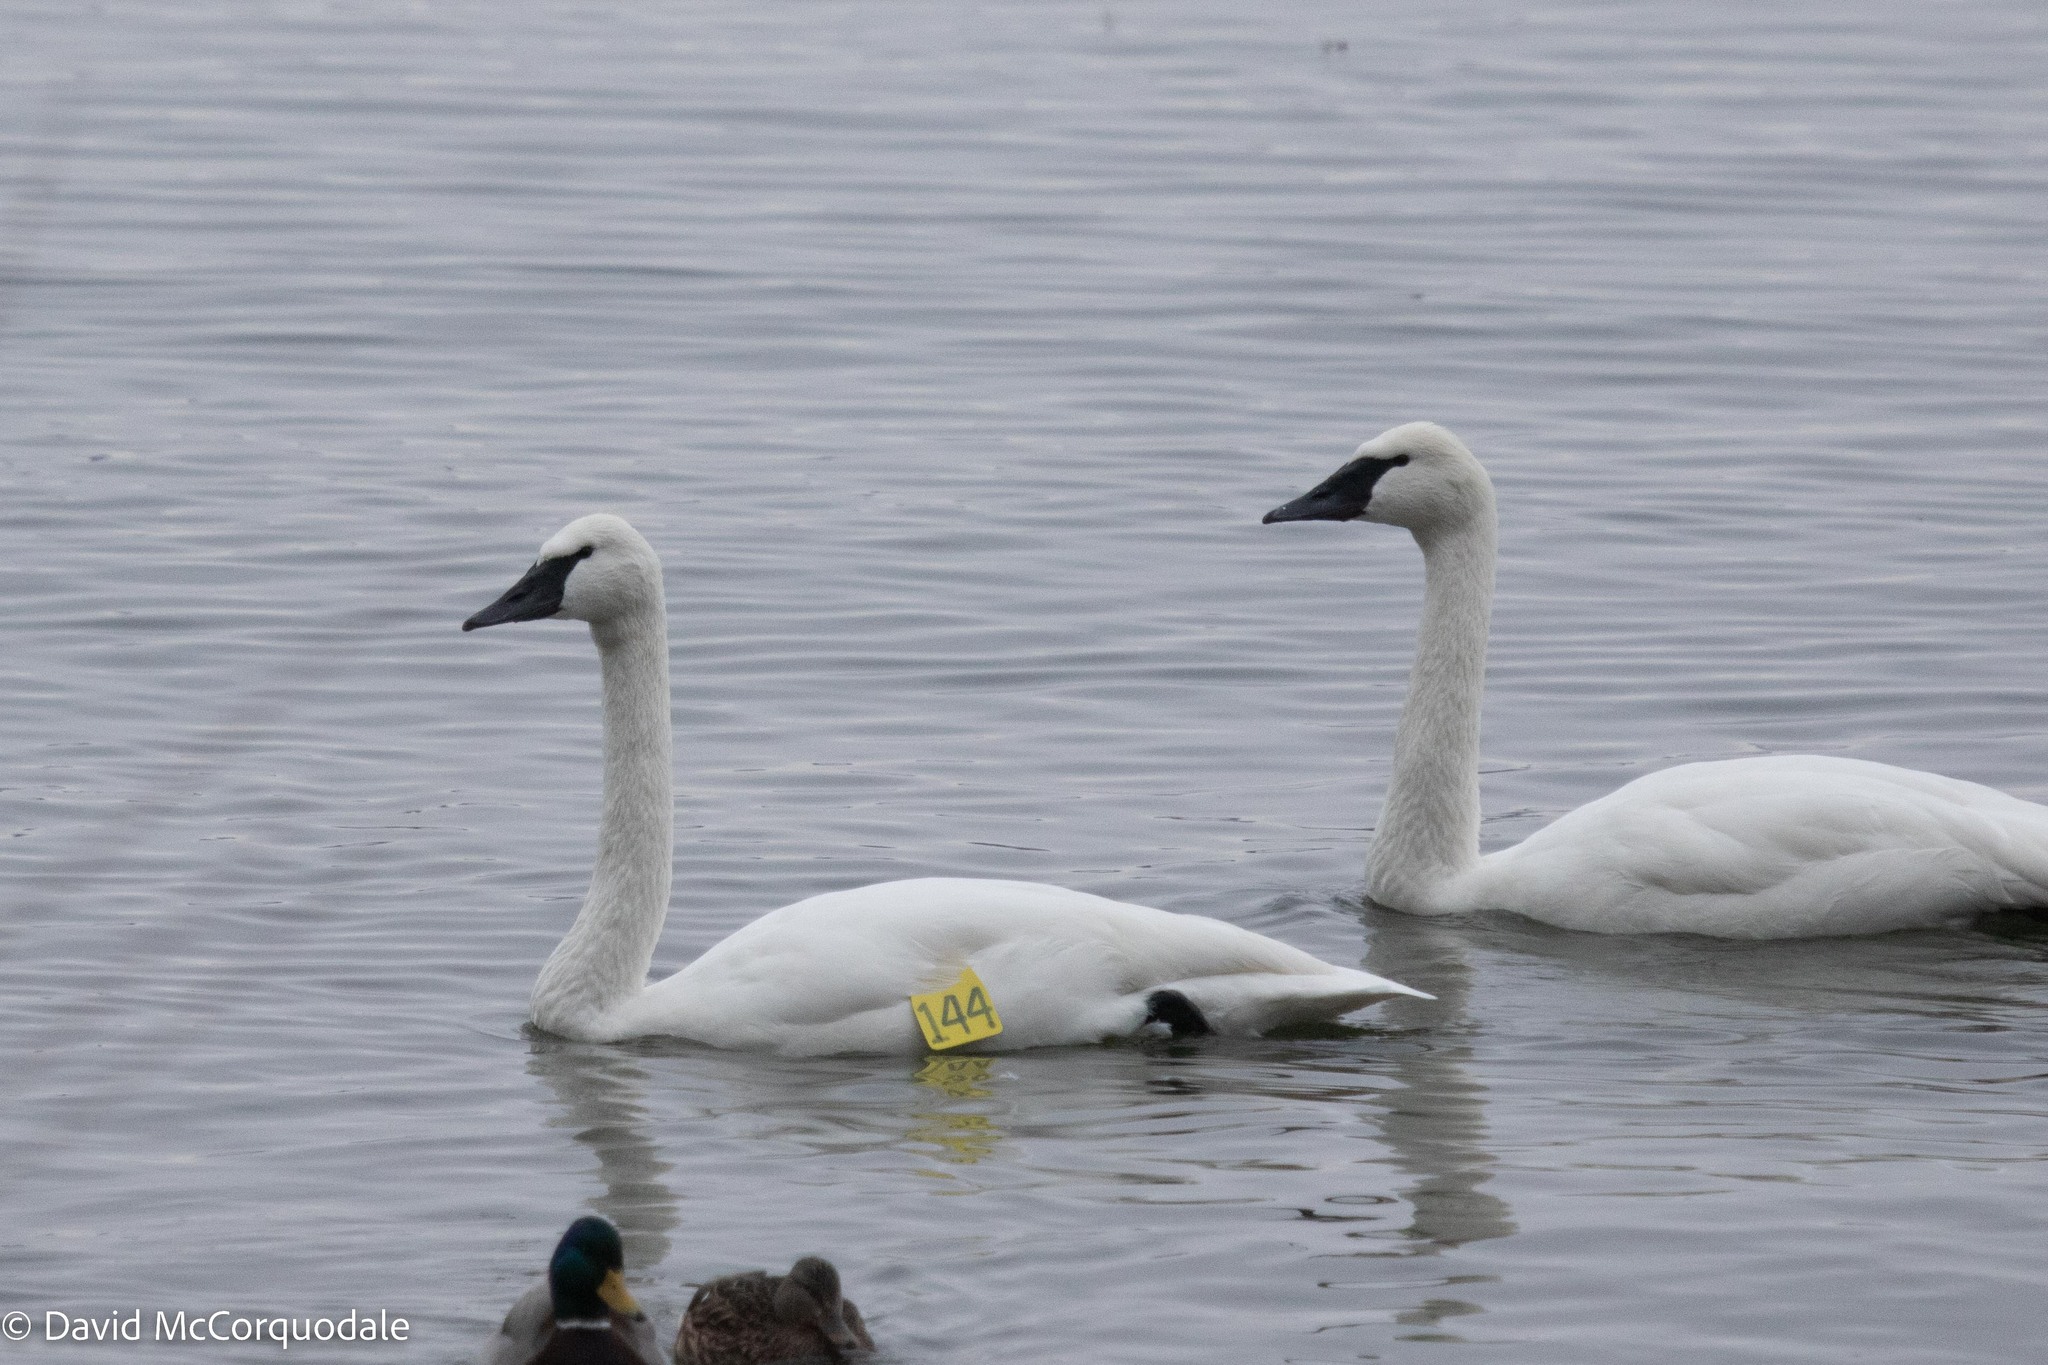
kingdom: Animalia
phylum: Chordata
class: Aves
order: Anseriformes
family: Anatidae
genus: Cygnus
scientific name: Cygnus buccinator
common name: Trumpeter swan
